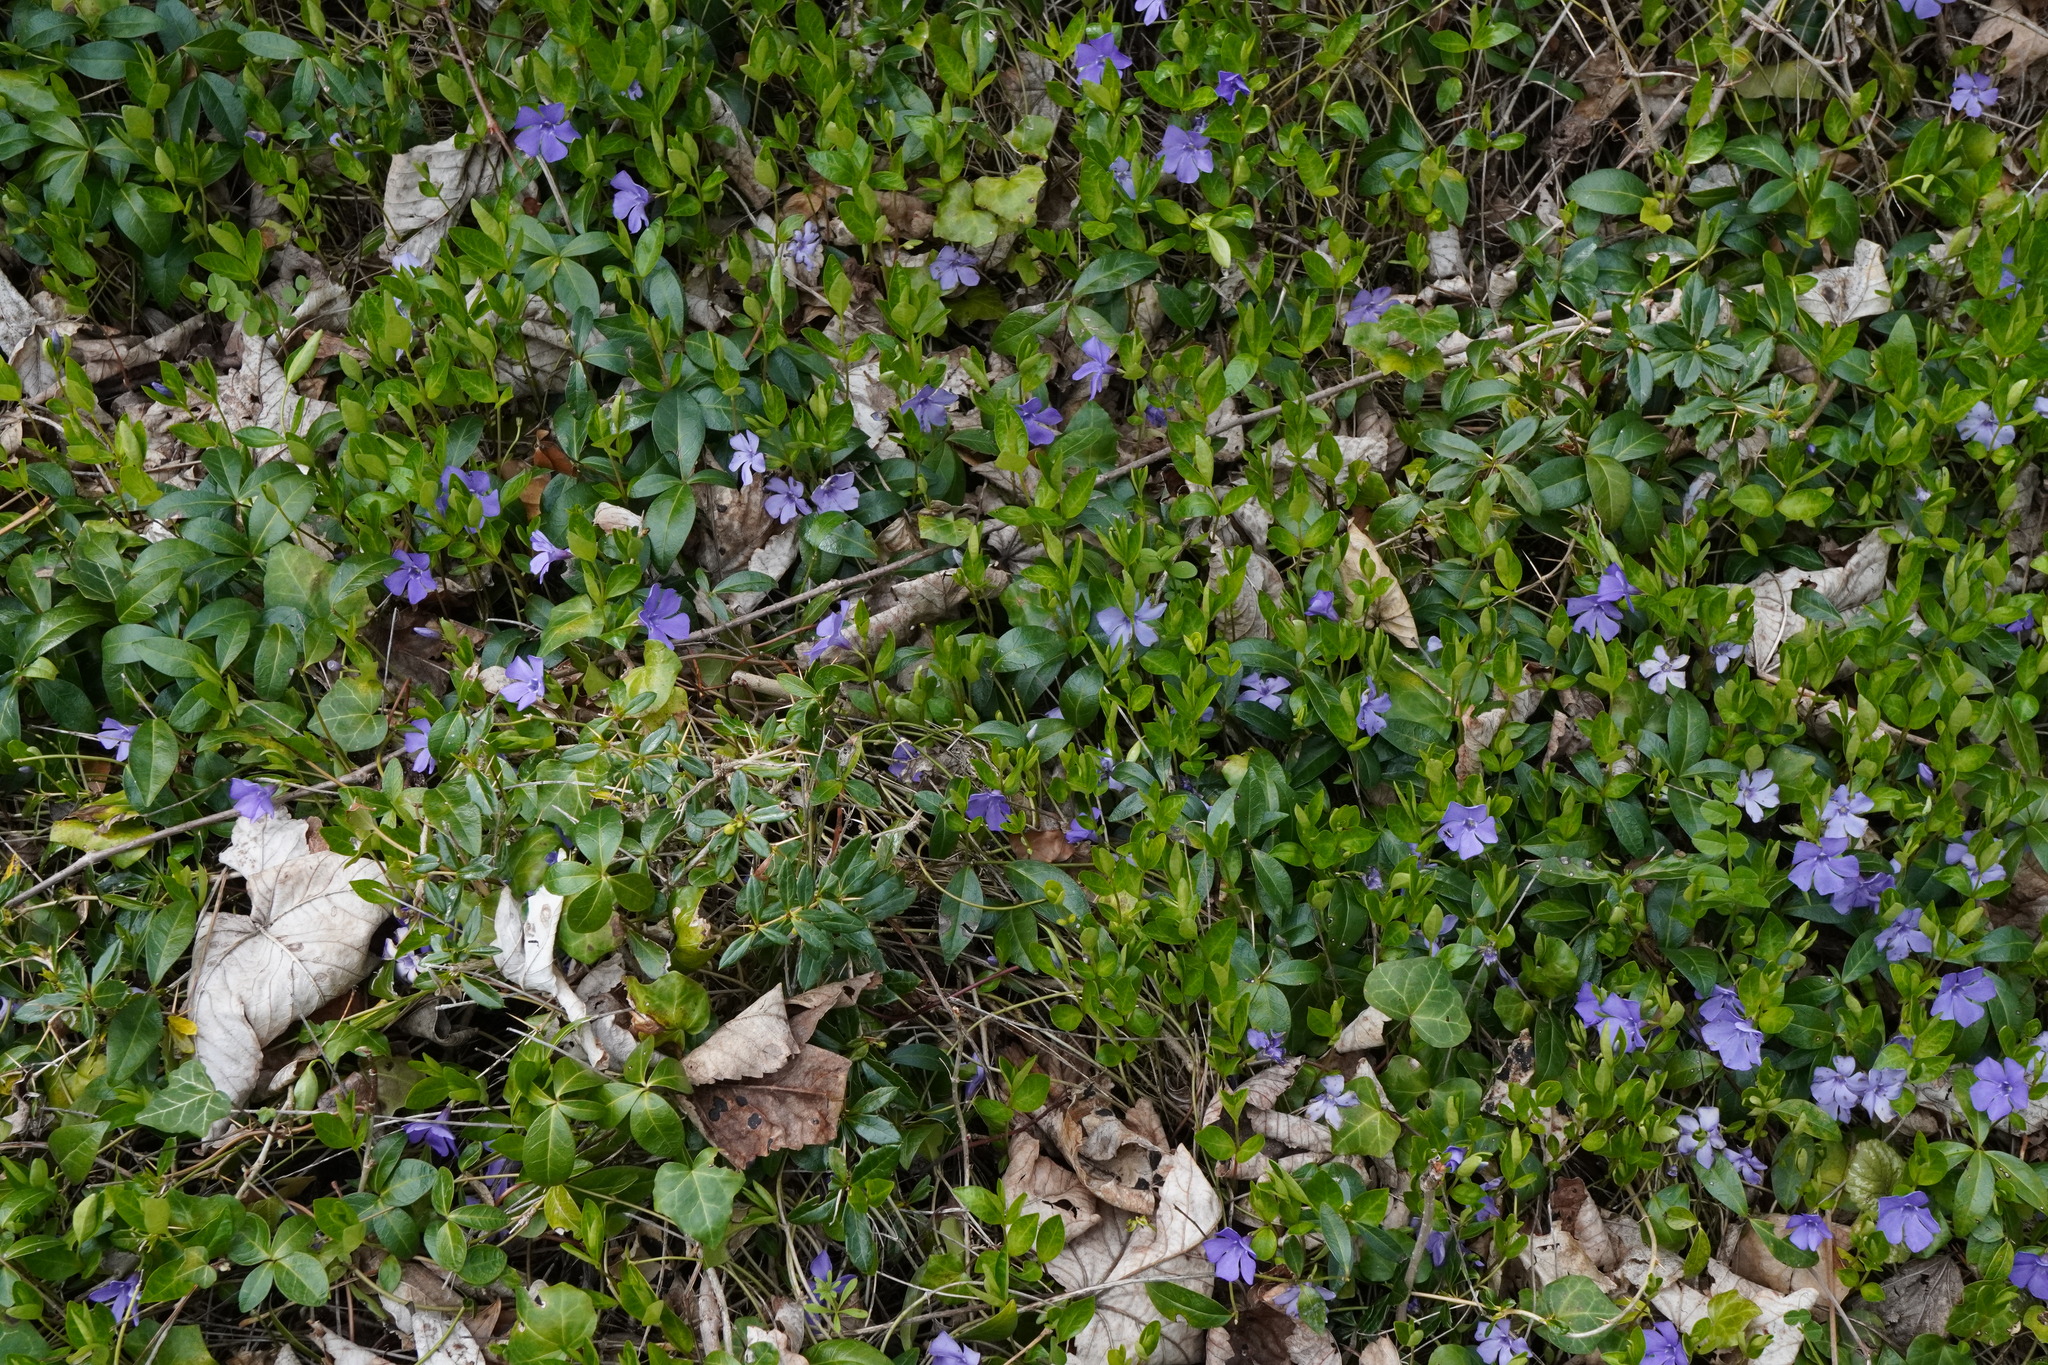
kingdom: Plantae
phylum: Tracheophyta
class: Magnoliopsida
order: Gentianales
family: Apocynaceae
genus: Vinca
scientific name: Vinca minor
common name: Lesser periwinkle
